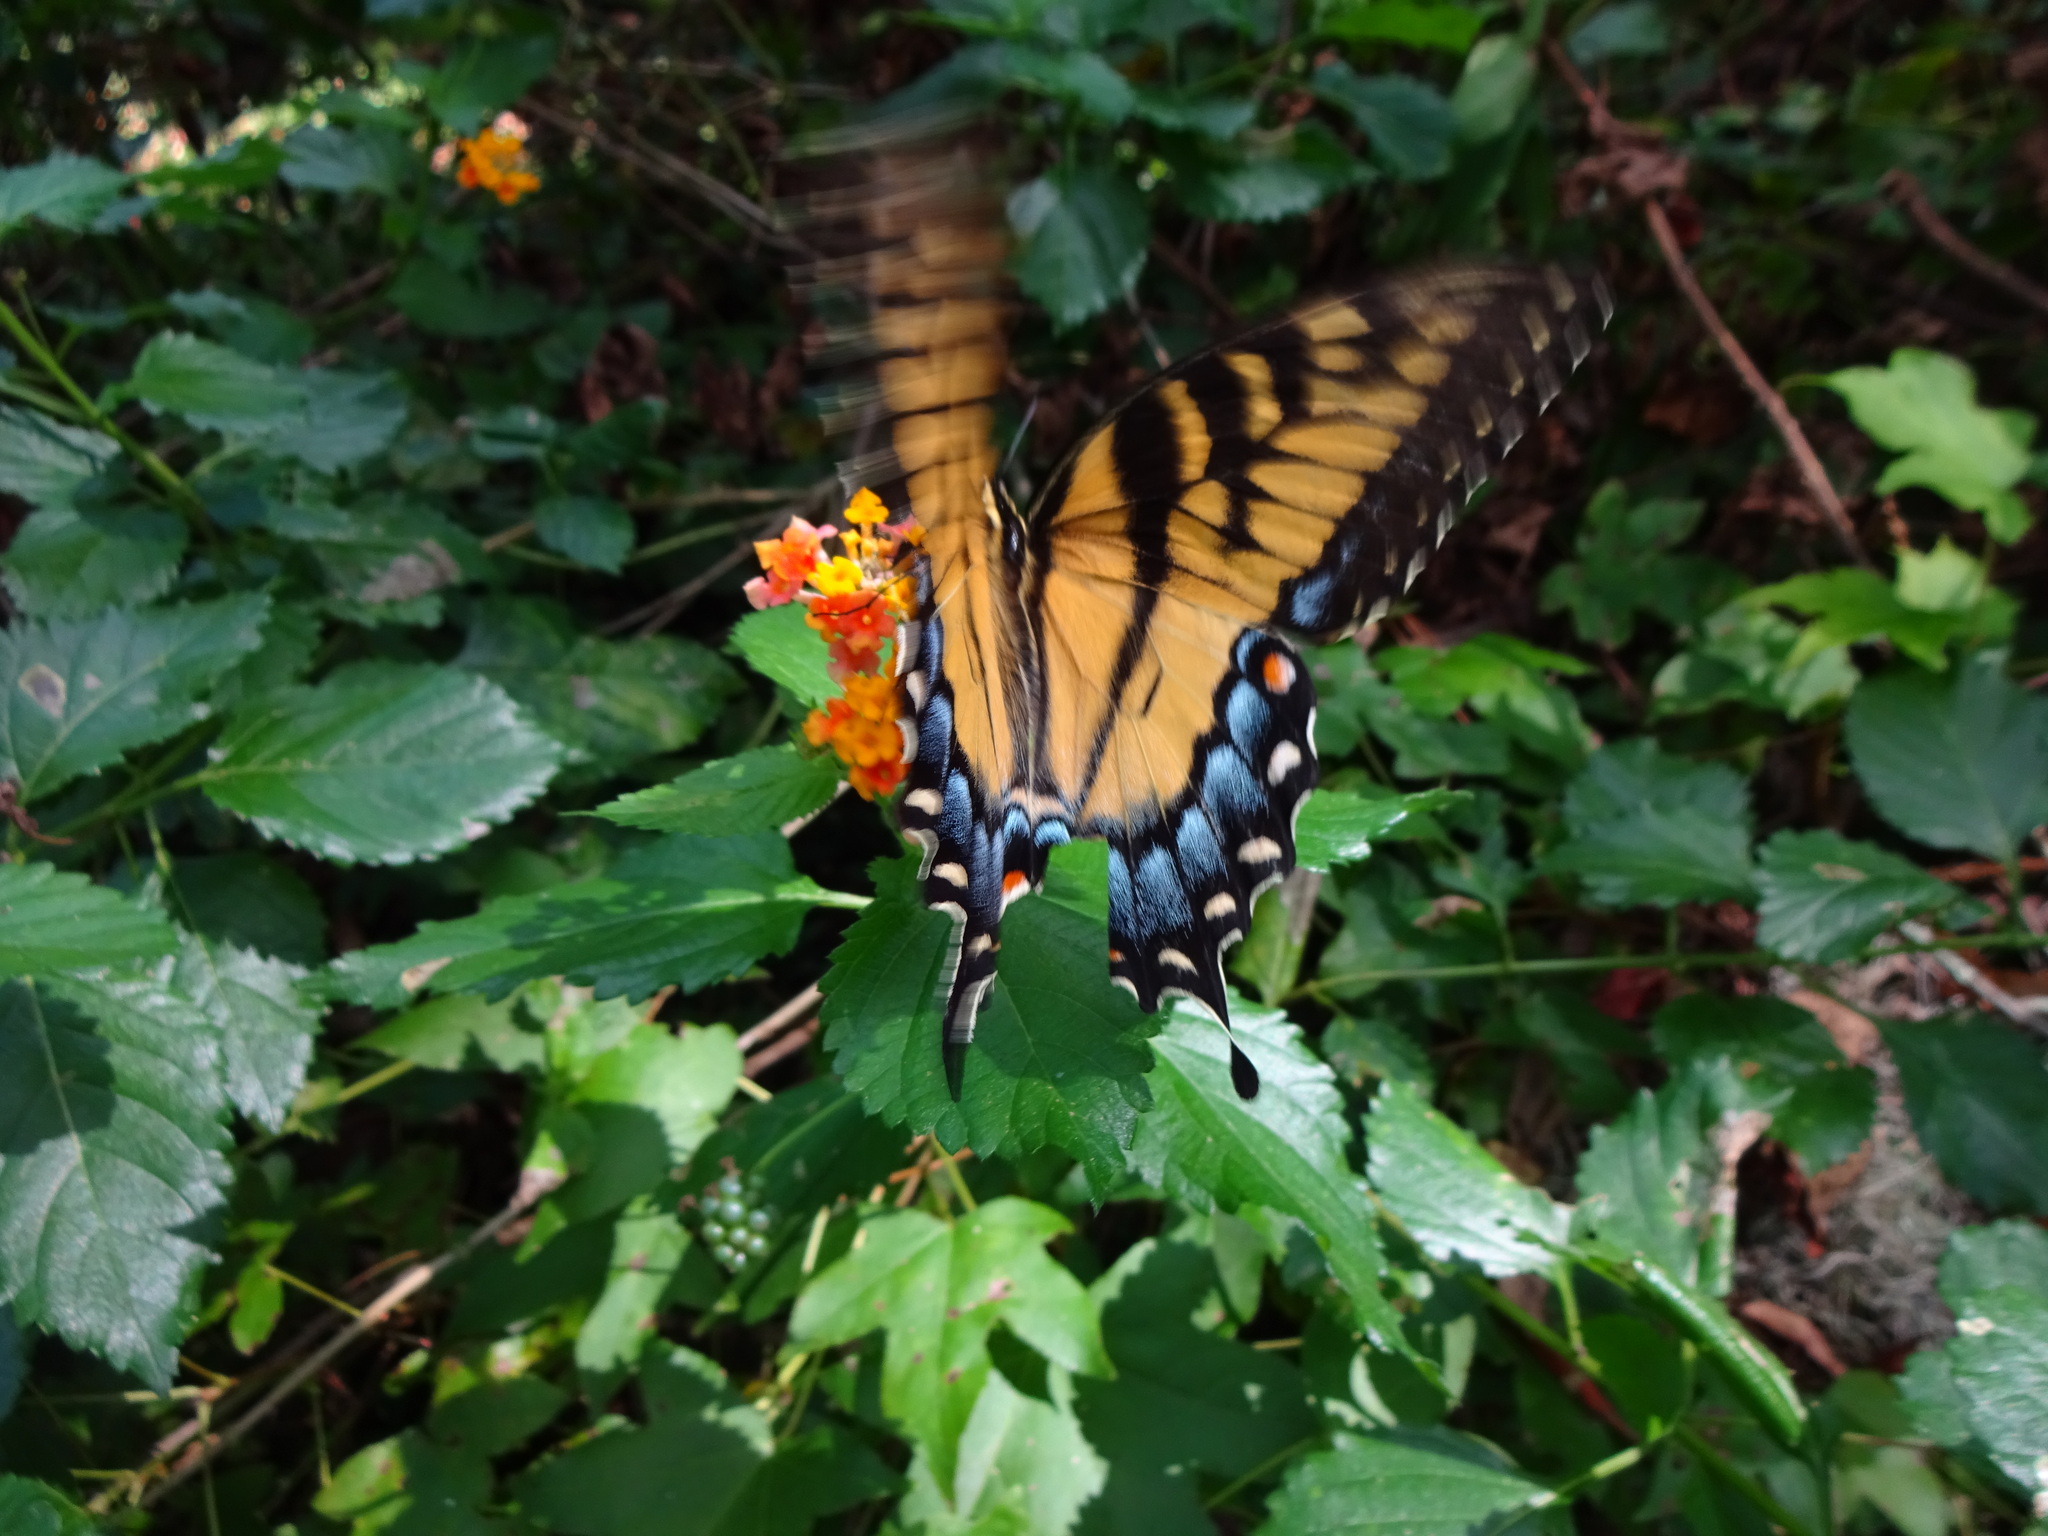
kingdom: Animalia
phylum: Arthropoda
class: Insecta
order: Lepidoptera
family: Papilionidae
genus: Papilio
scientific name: Papilio glaucus
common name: Tiger swallowtail
